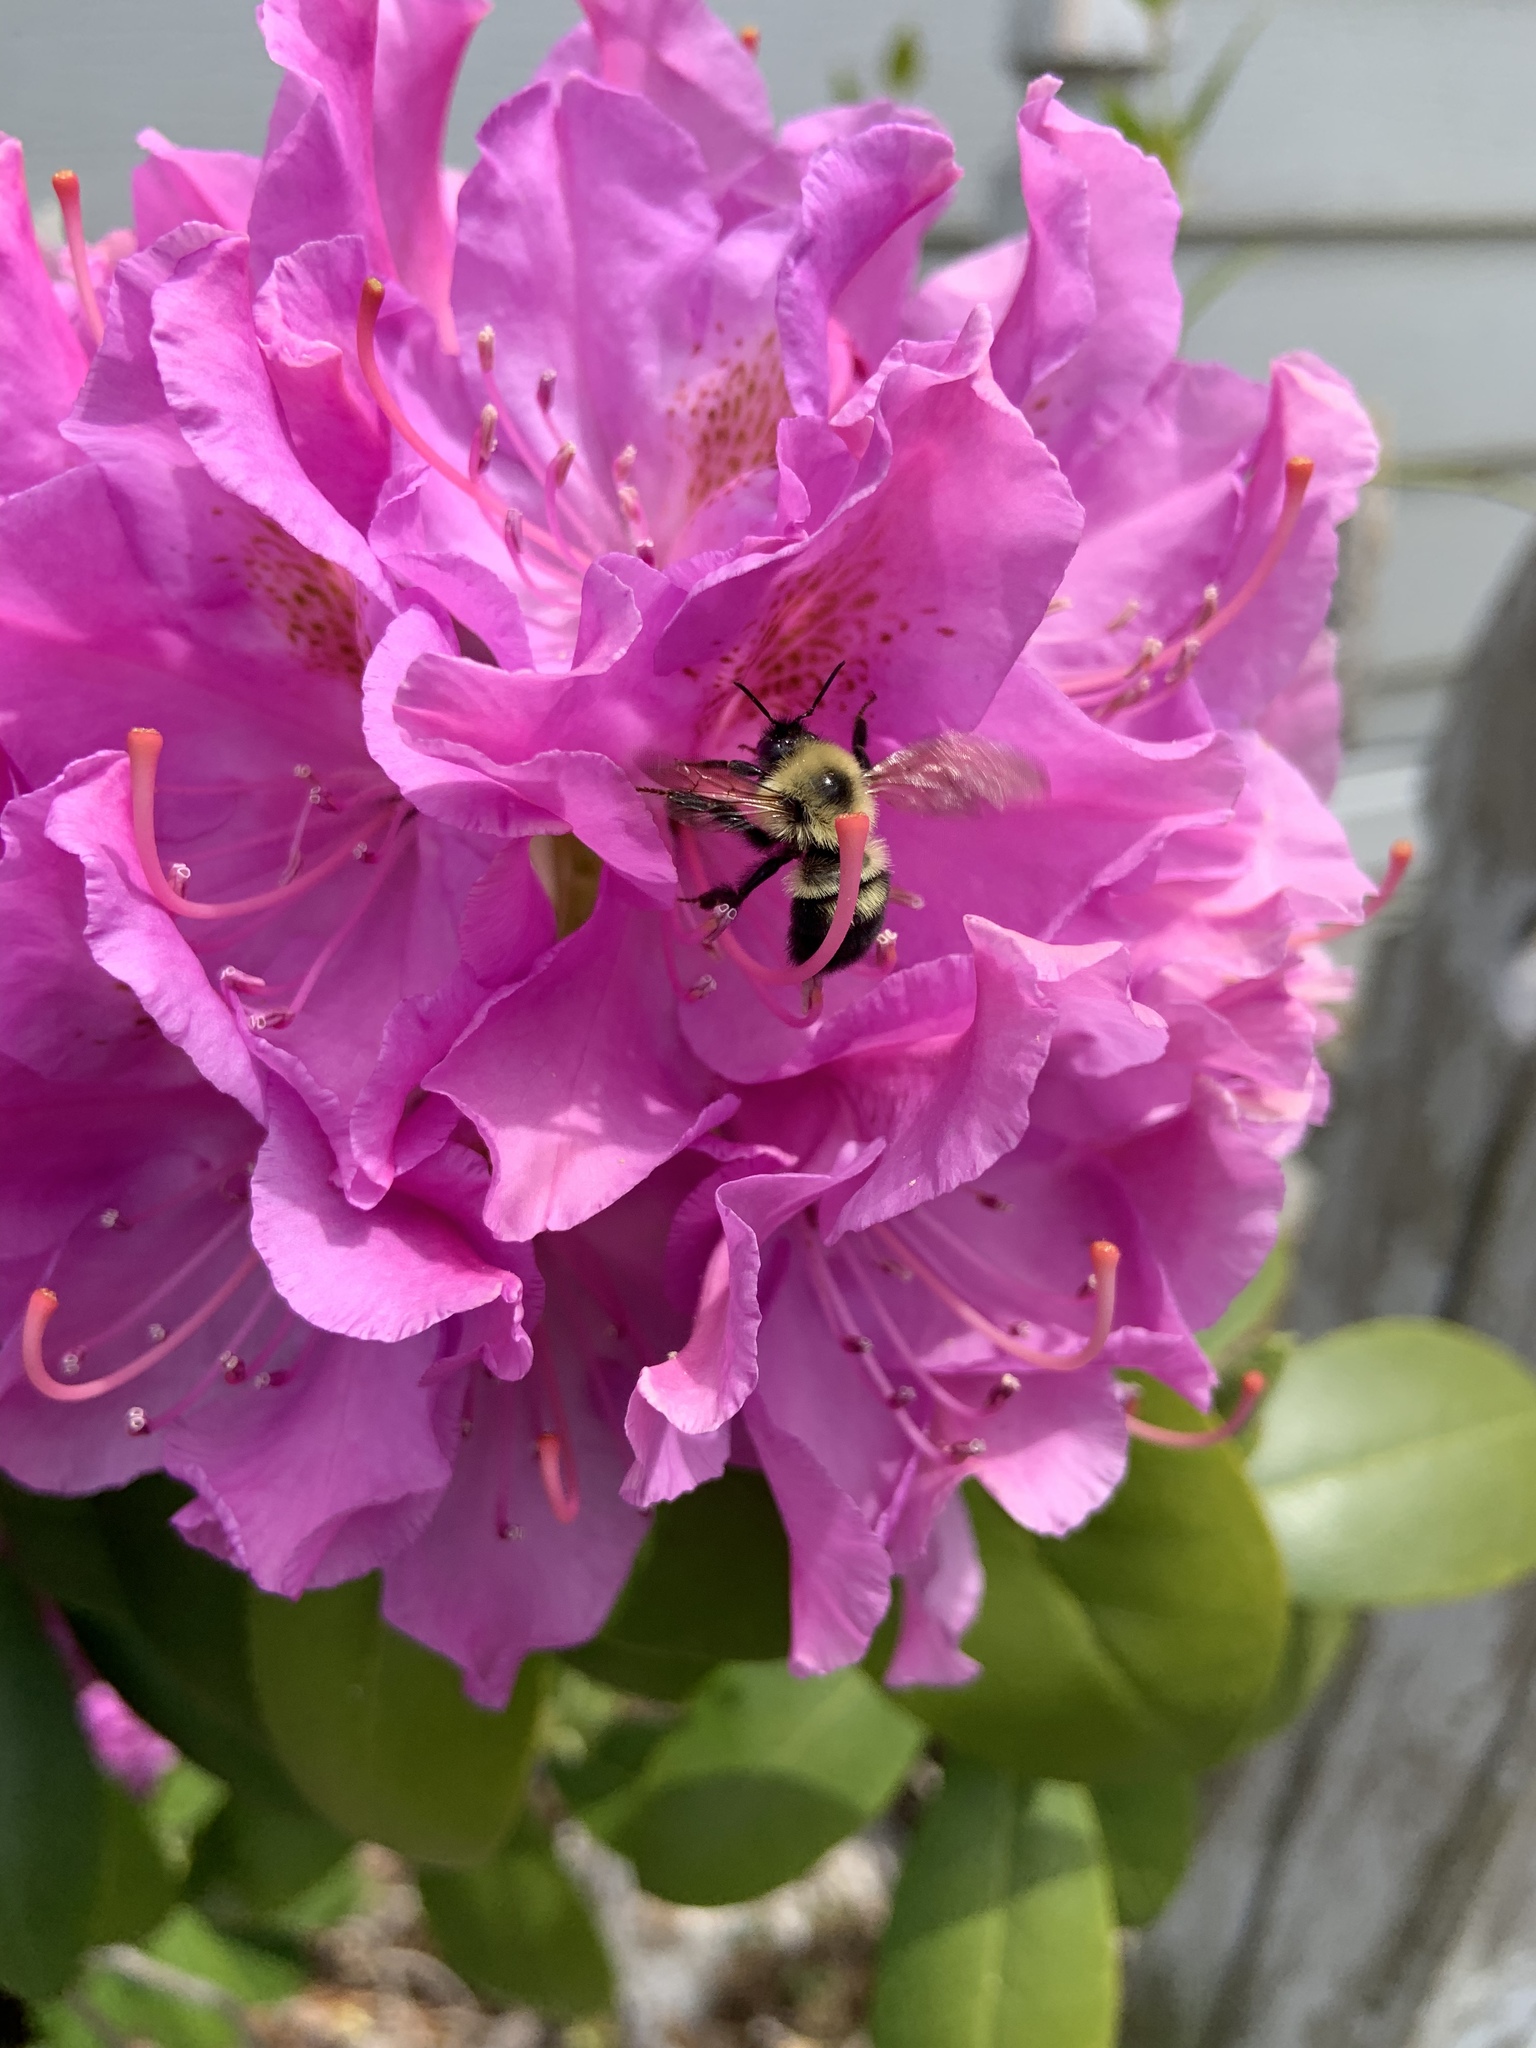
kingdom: Animalia
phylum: Arthropoda
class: Insecta
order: Hymenoptera
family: Apidae
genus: Bombus
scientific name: Bombus bimaculatus
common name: Two-spotted bumble bee
